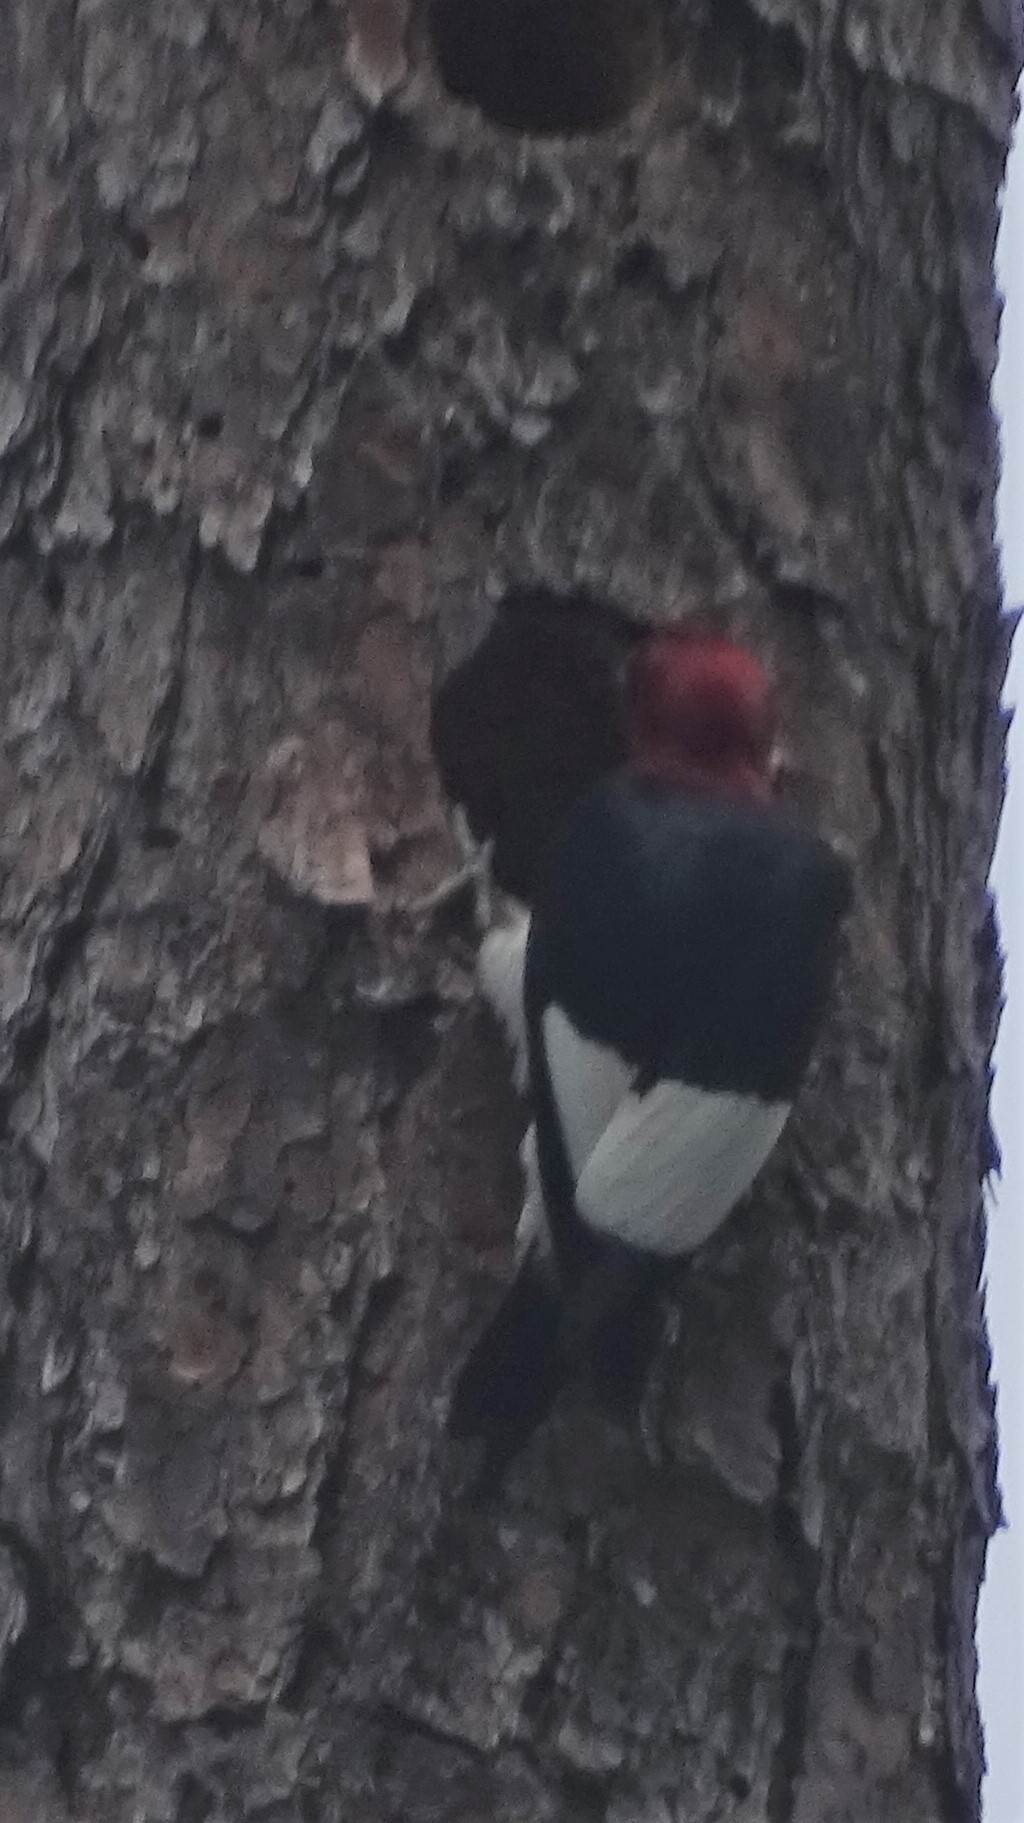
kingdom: Animalia
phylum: Chordata
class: Aves
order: Piciformes
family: Picidae
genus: Melanerpes
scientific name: Melanerpes erythrocephalus
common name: Red-headed woodpecker
